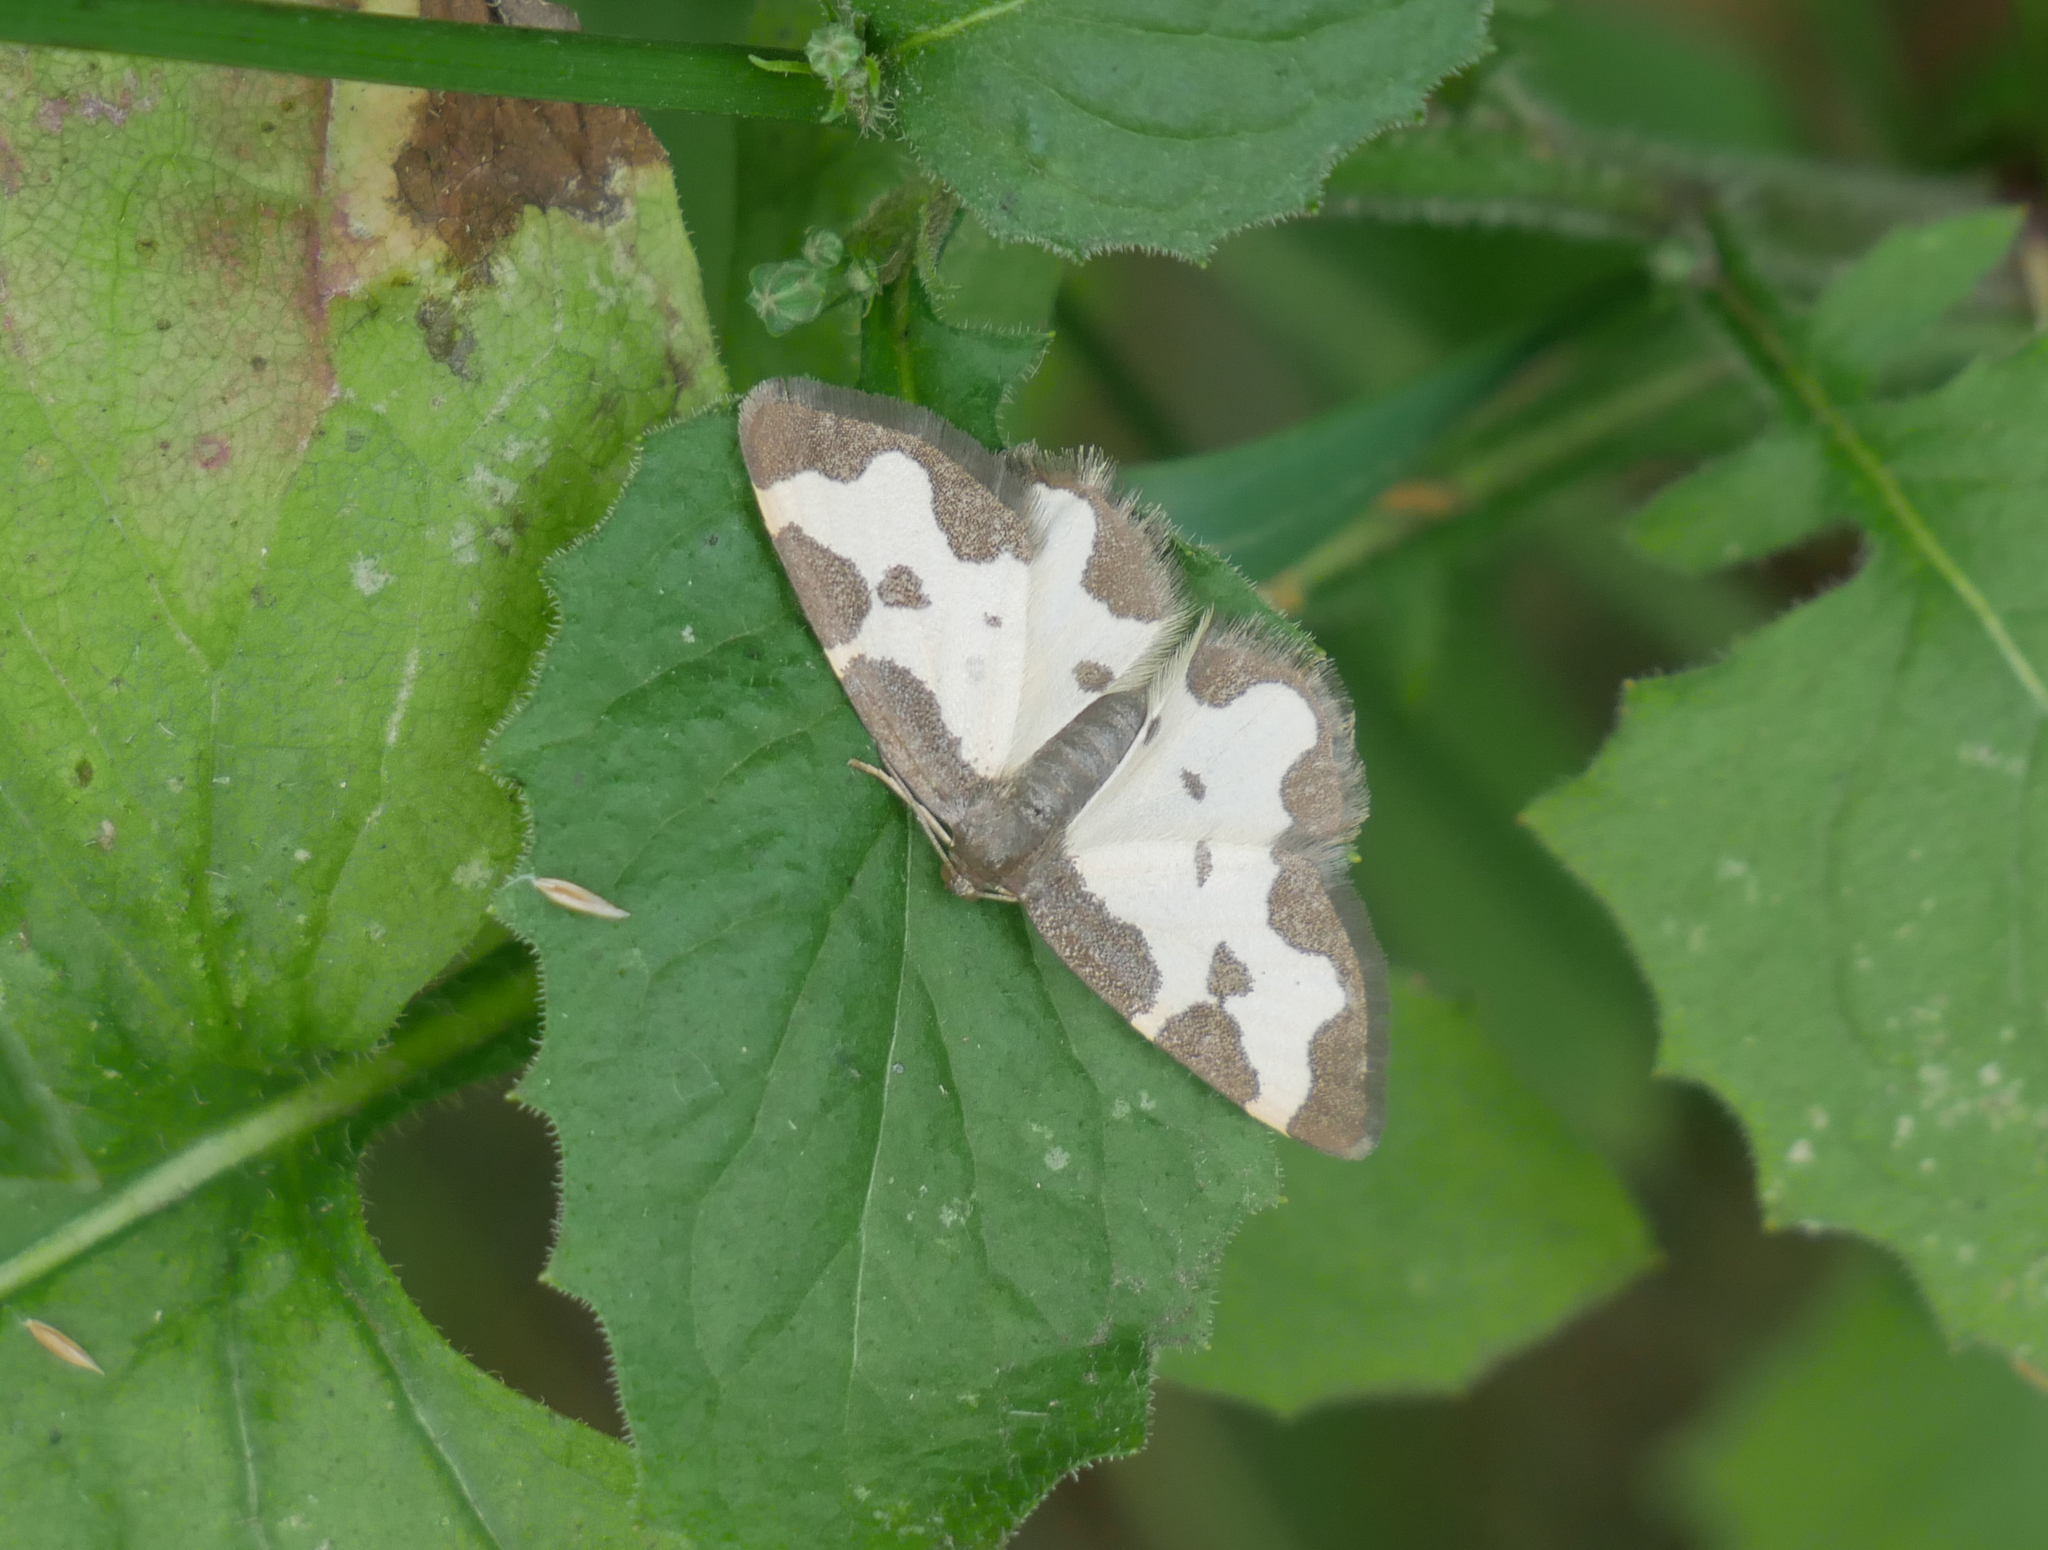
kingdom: Animalia
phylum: Arthropoda
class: Insecta
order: Lepidoptera
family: Geometridae
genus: Lomaspilis
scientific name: Lomaspilis marginata
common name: Clouded border
